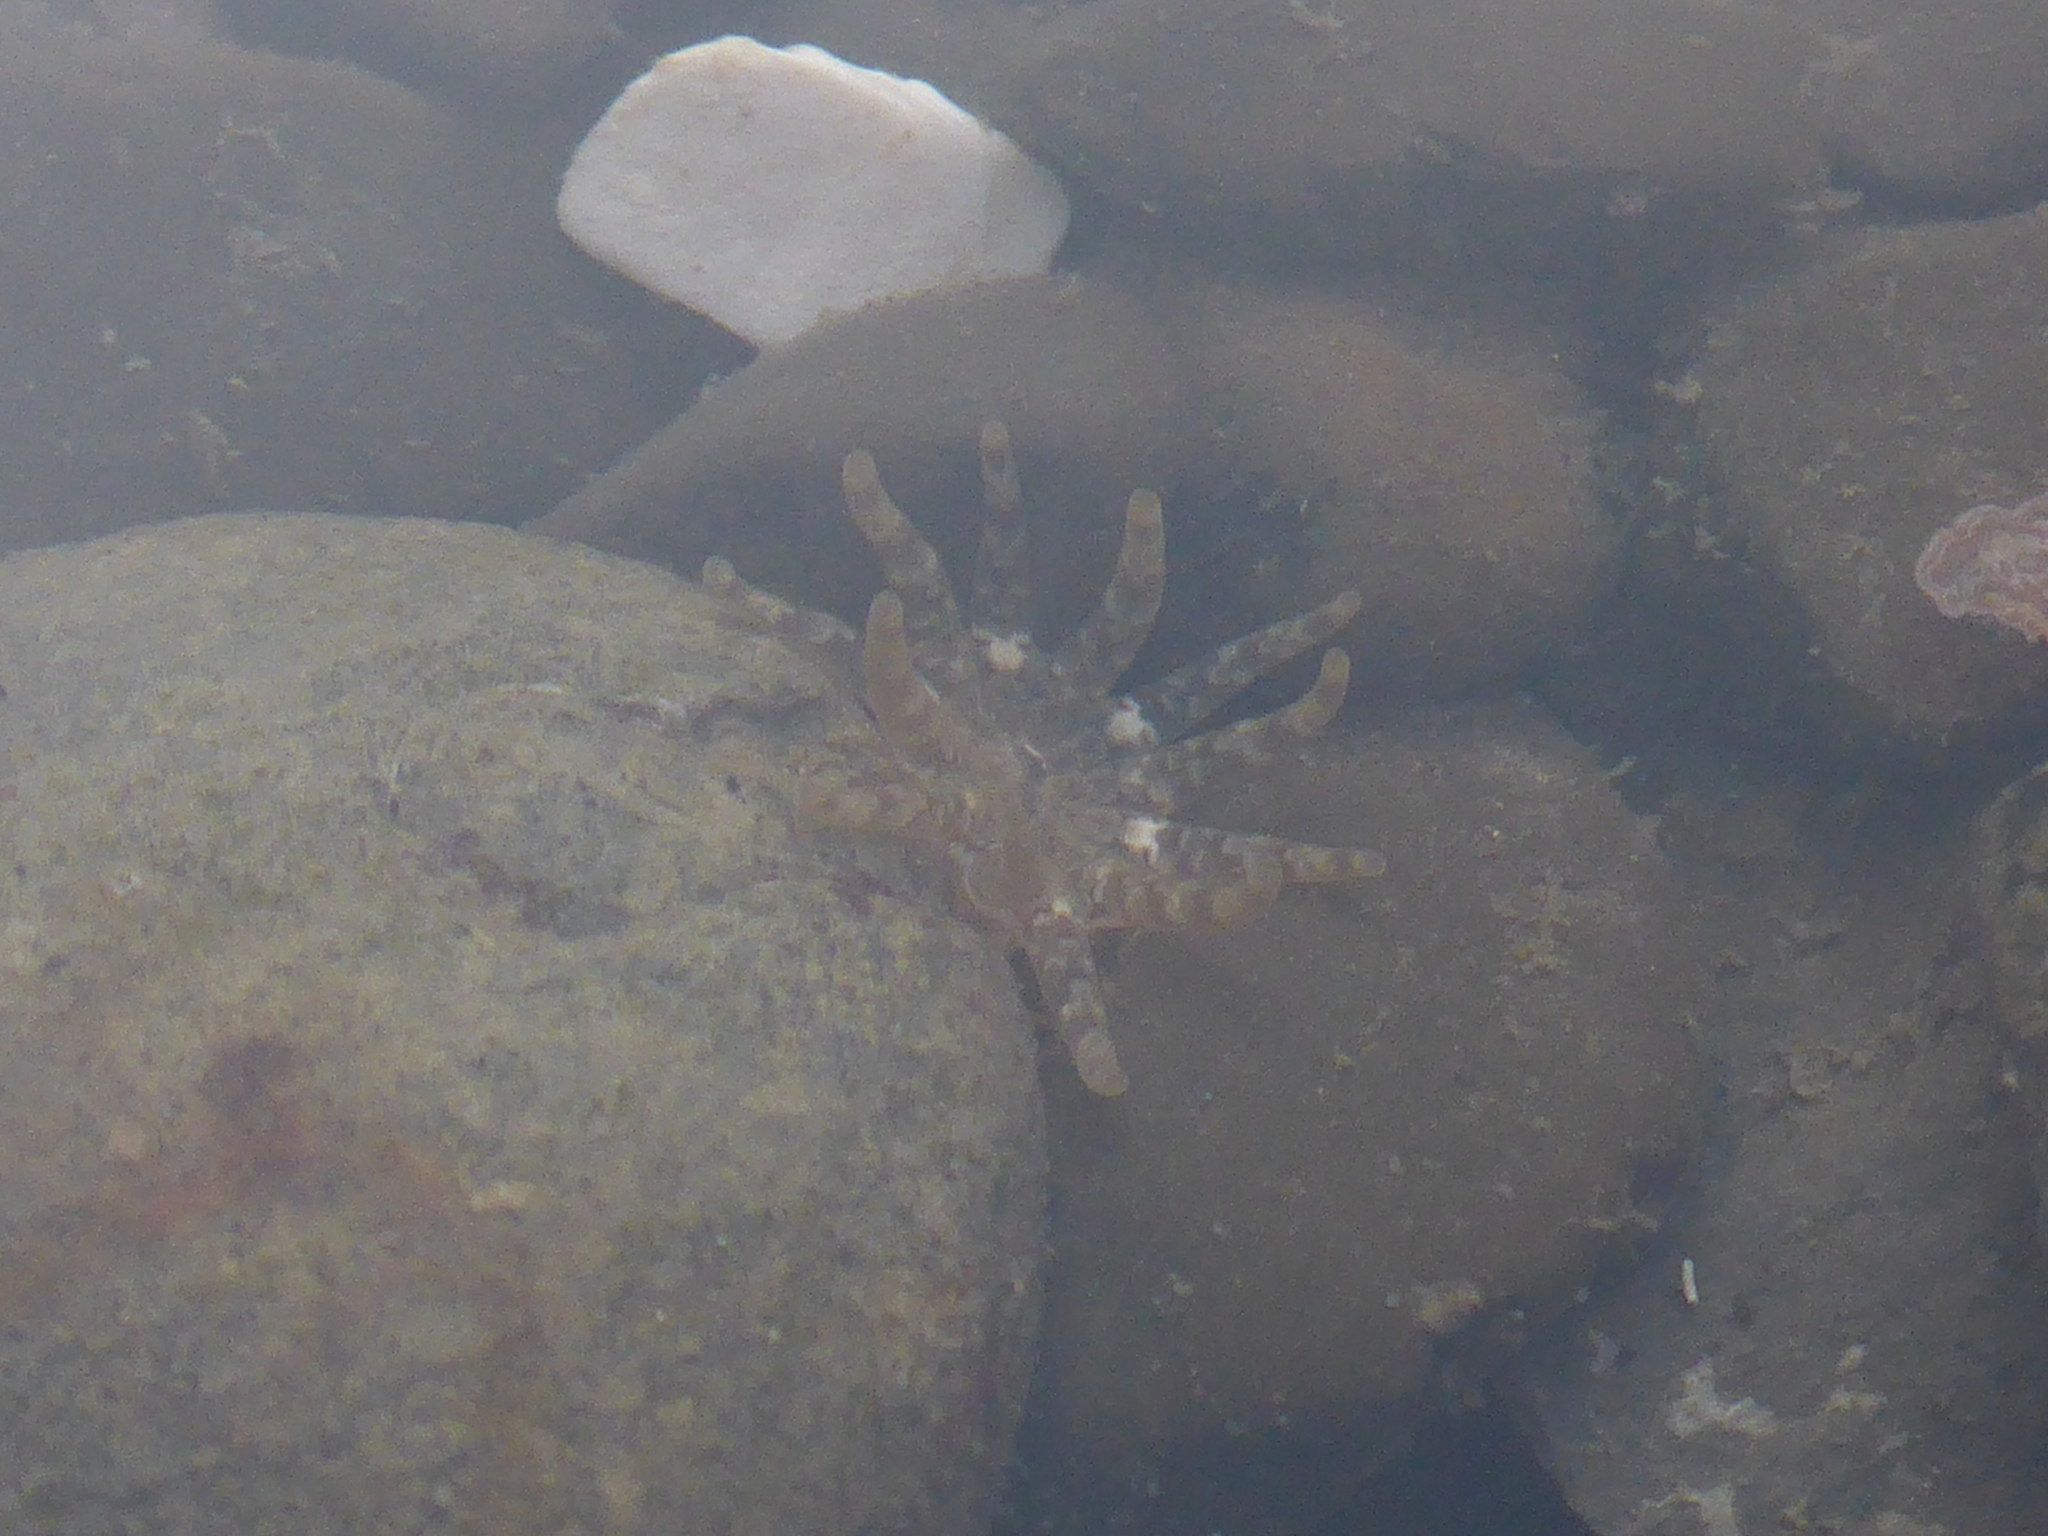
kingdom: Animalia
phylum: Cnidaria
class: Anthozoa
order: Actiniaria
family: Halcampidae
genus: Halcampa
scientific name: Halcampa crypta
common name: Cryptic burrowing anemone
